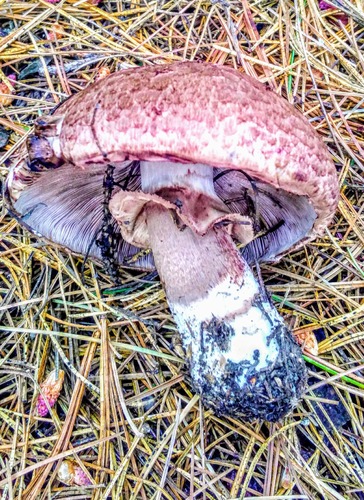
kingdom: Fungi
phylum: Basidiomycota
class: Agaricomycetes
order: Agaricales
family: Agaricaceae
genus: Agaricus
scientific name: Agaricus sylvaticus
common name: Blushing wood mushroom
